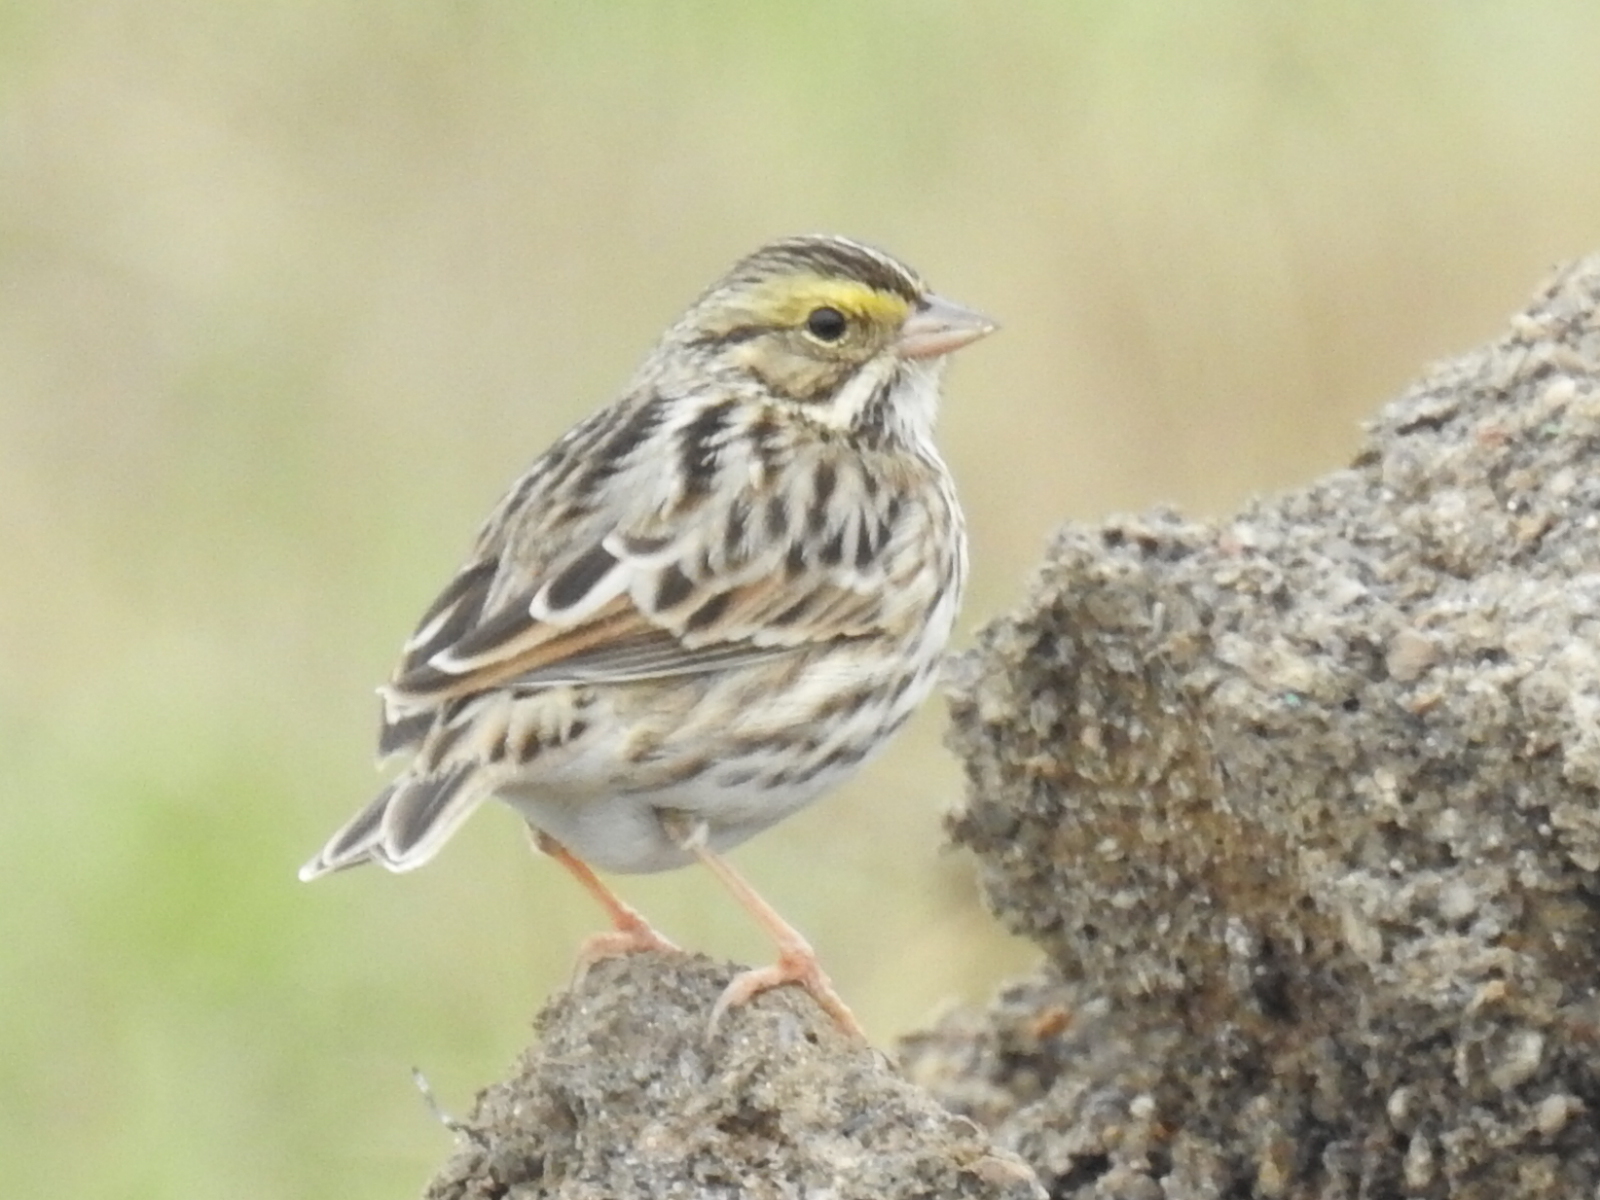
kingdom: Animalia
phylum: Chordata
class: Aves
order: Passeriformes
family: Passerellidae
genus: Passerculus
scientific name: Passerculus sandwichensis
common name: Savannah sparrow
